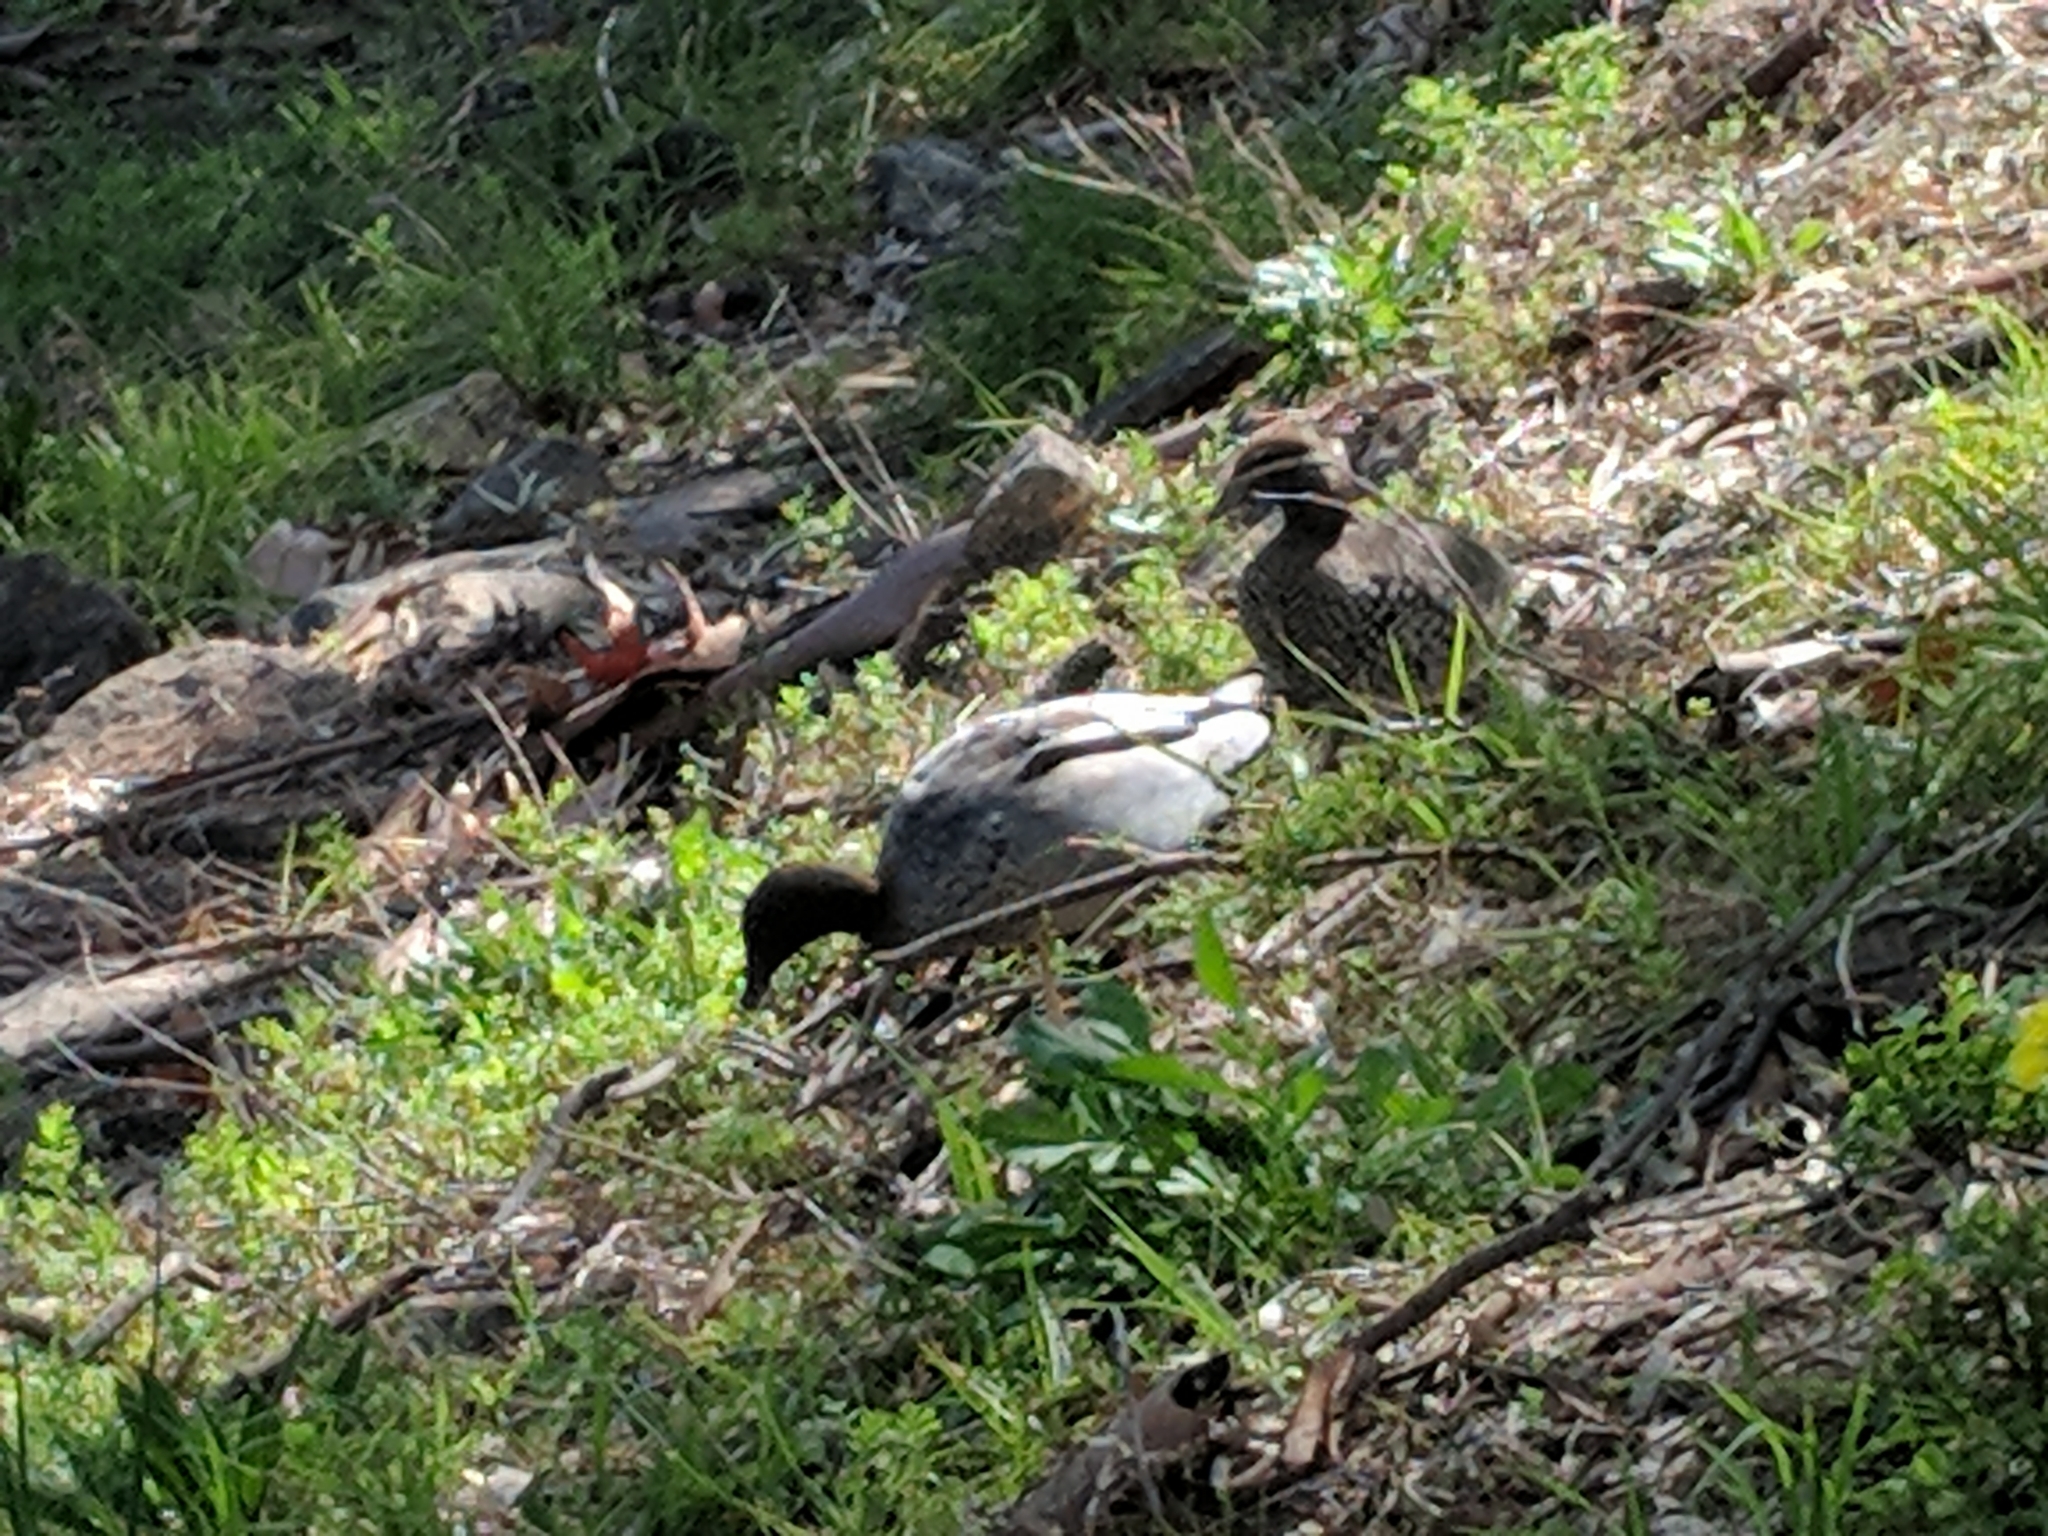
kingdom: Animalia
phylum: Chordata
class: Aves
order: Anseriformes
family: Anatidae
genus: Chenonetta
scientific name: Chenonetta jubata
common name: Maned duck
